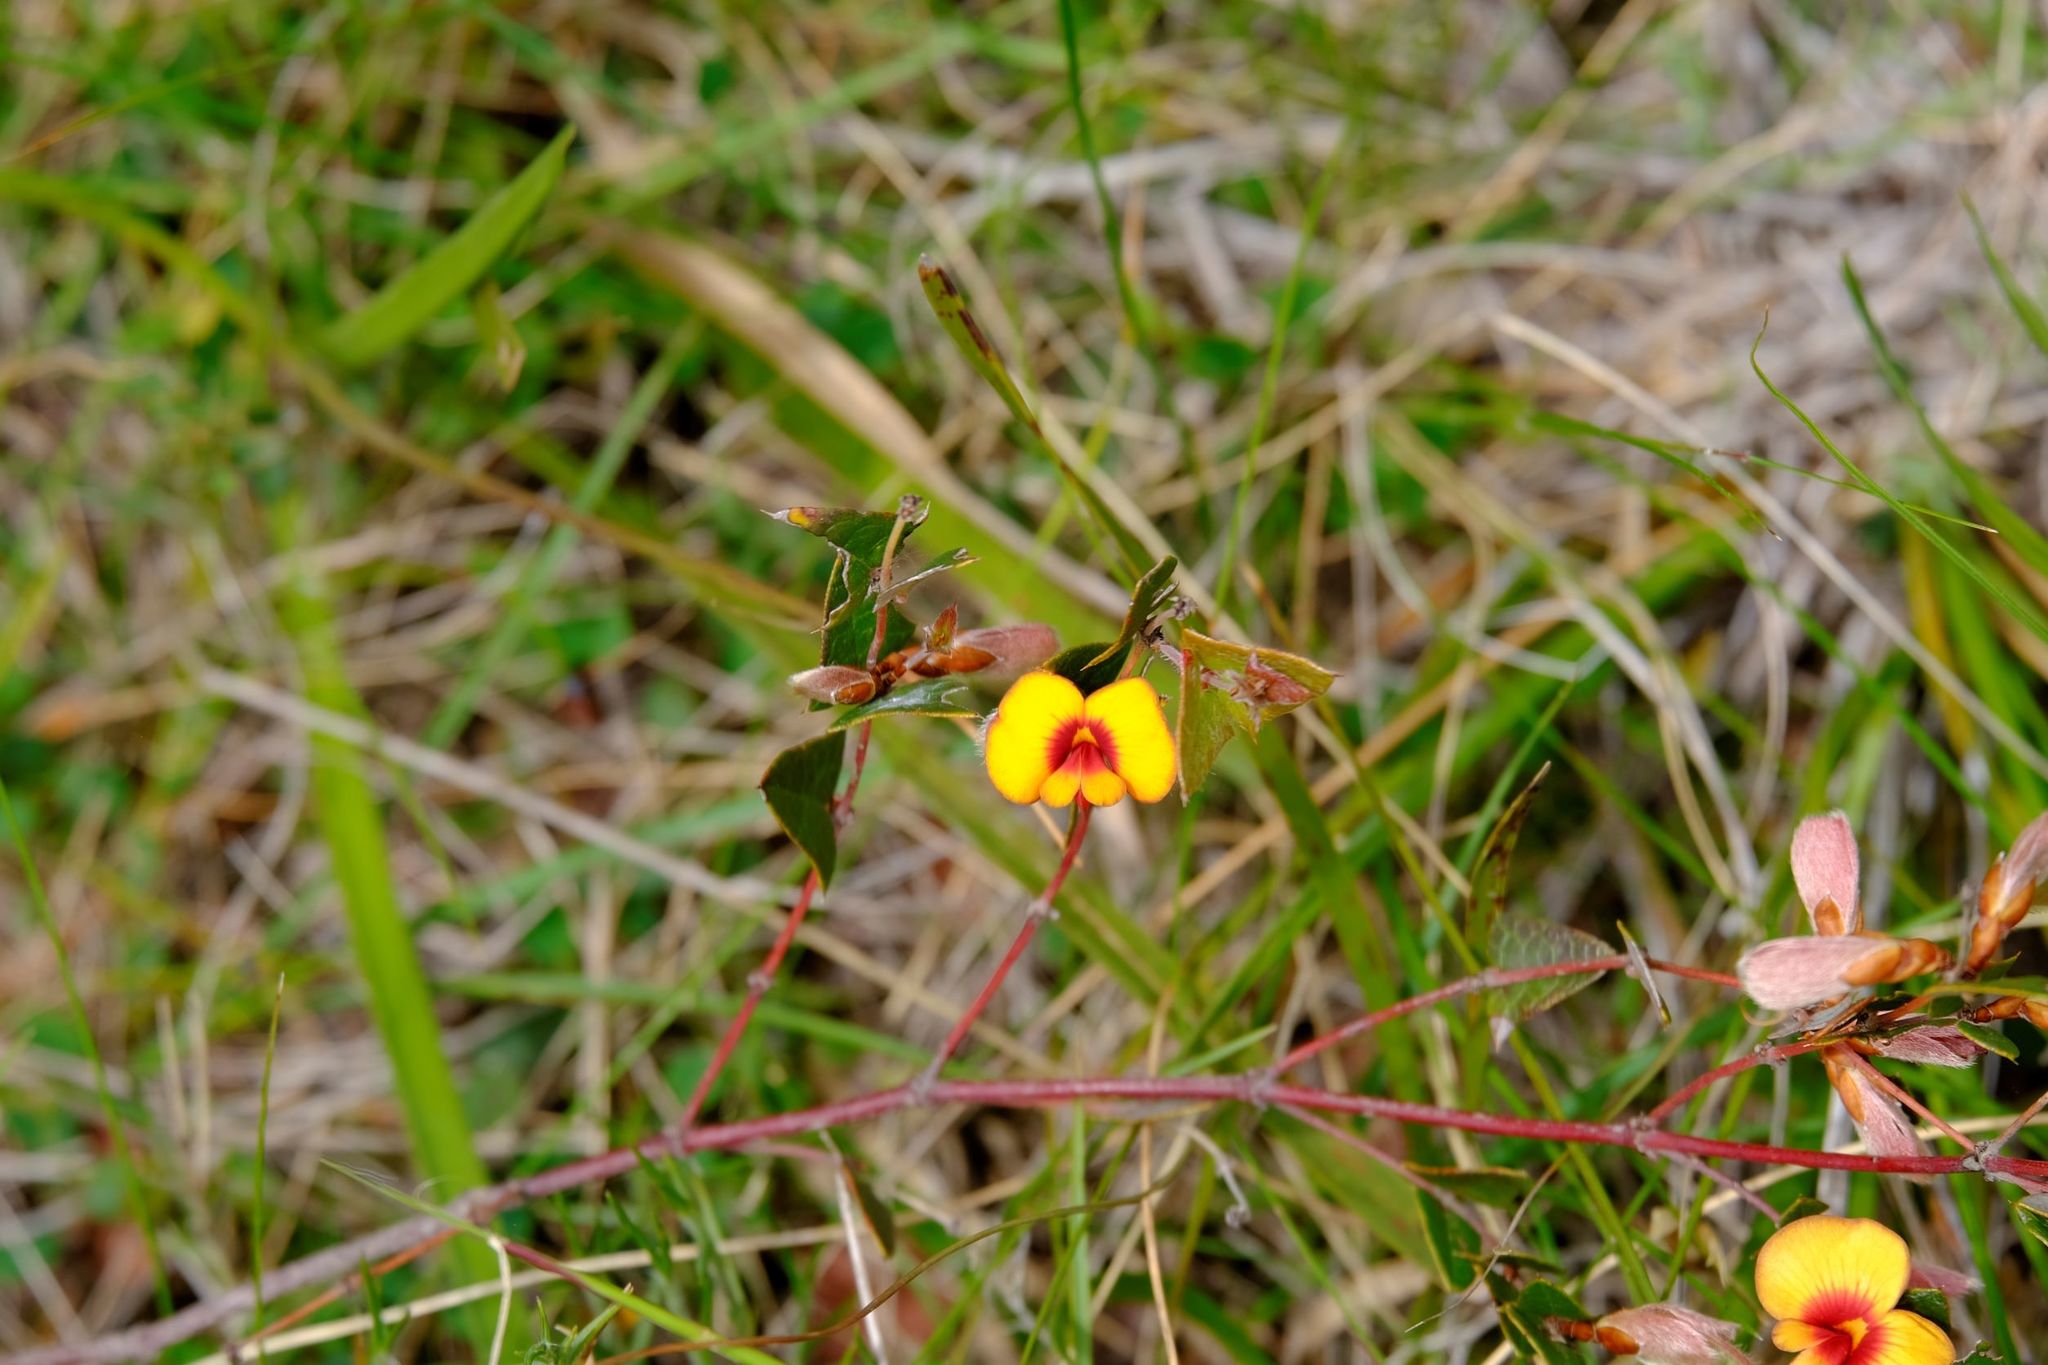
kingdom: Plantae
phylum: Tracheophyta
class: Magnoliopsida
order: Fabales
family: Fabaceae
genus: Platylobium
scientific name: Platylobium obtusangulum
